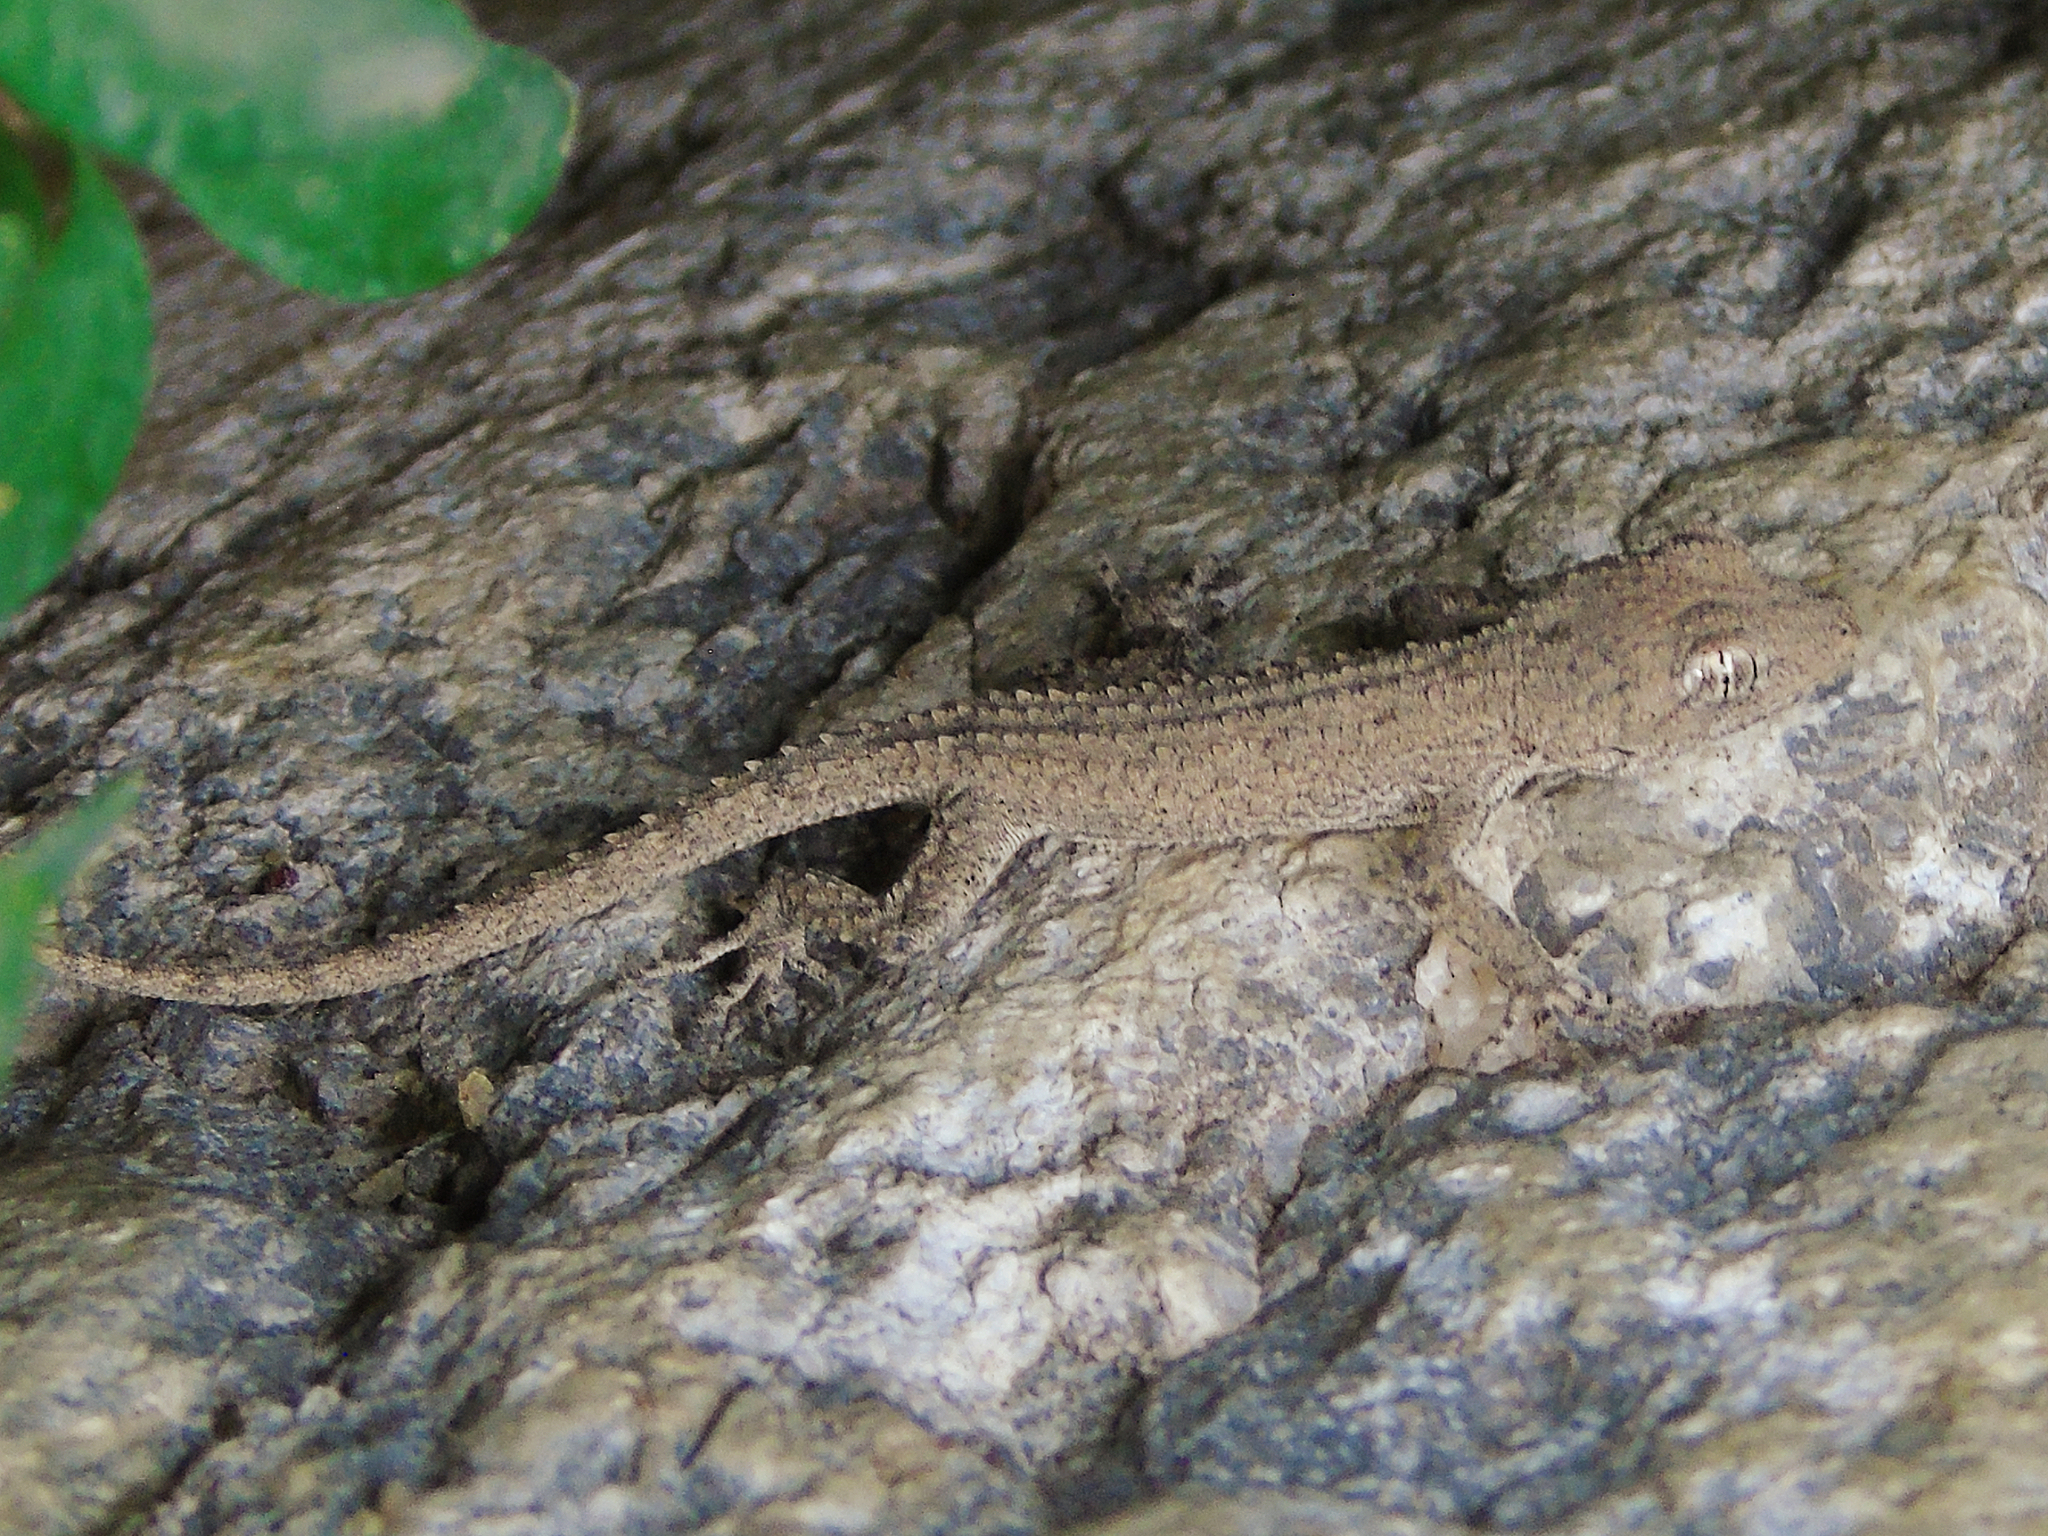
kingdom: Animalia
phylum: Chordata
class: Squamata
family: Gekkonidae
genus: Mediodactylus
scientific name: Mediodactylus russowii
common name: Grey thin-toed gecko
